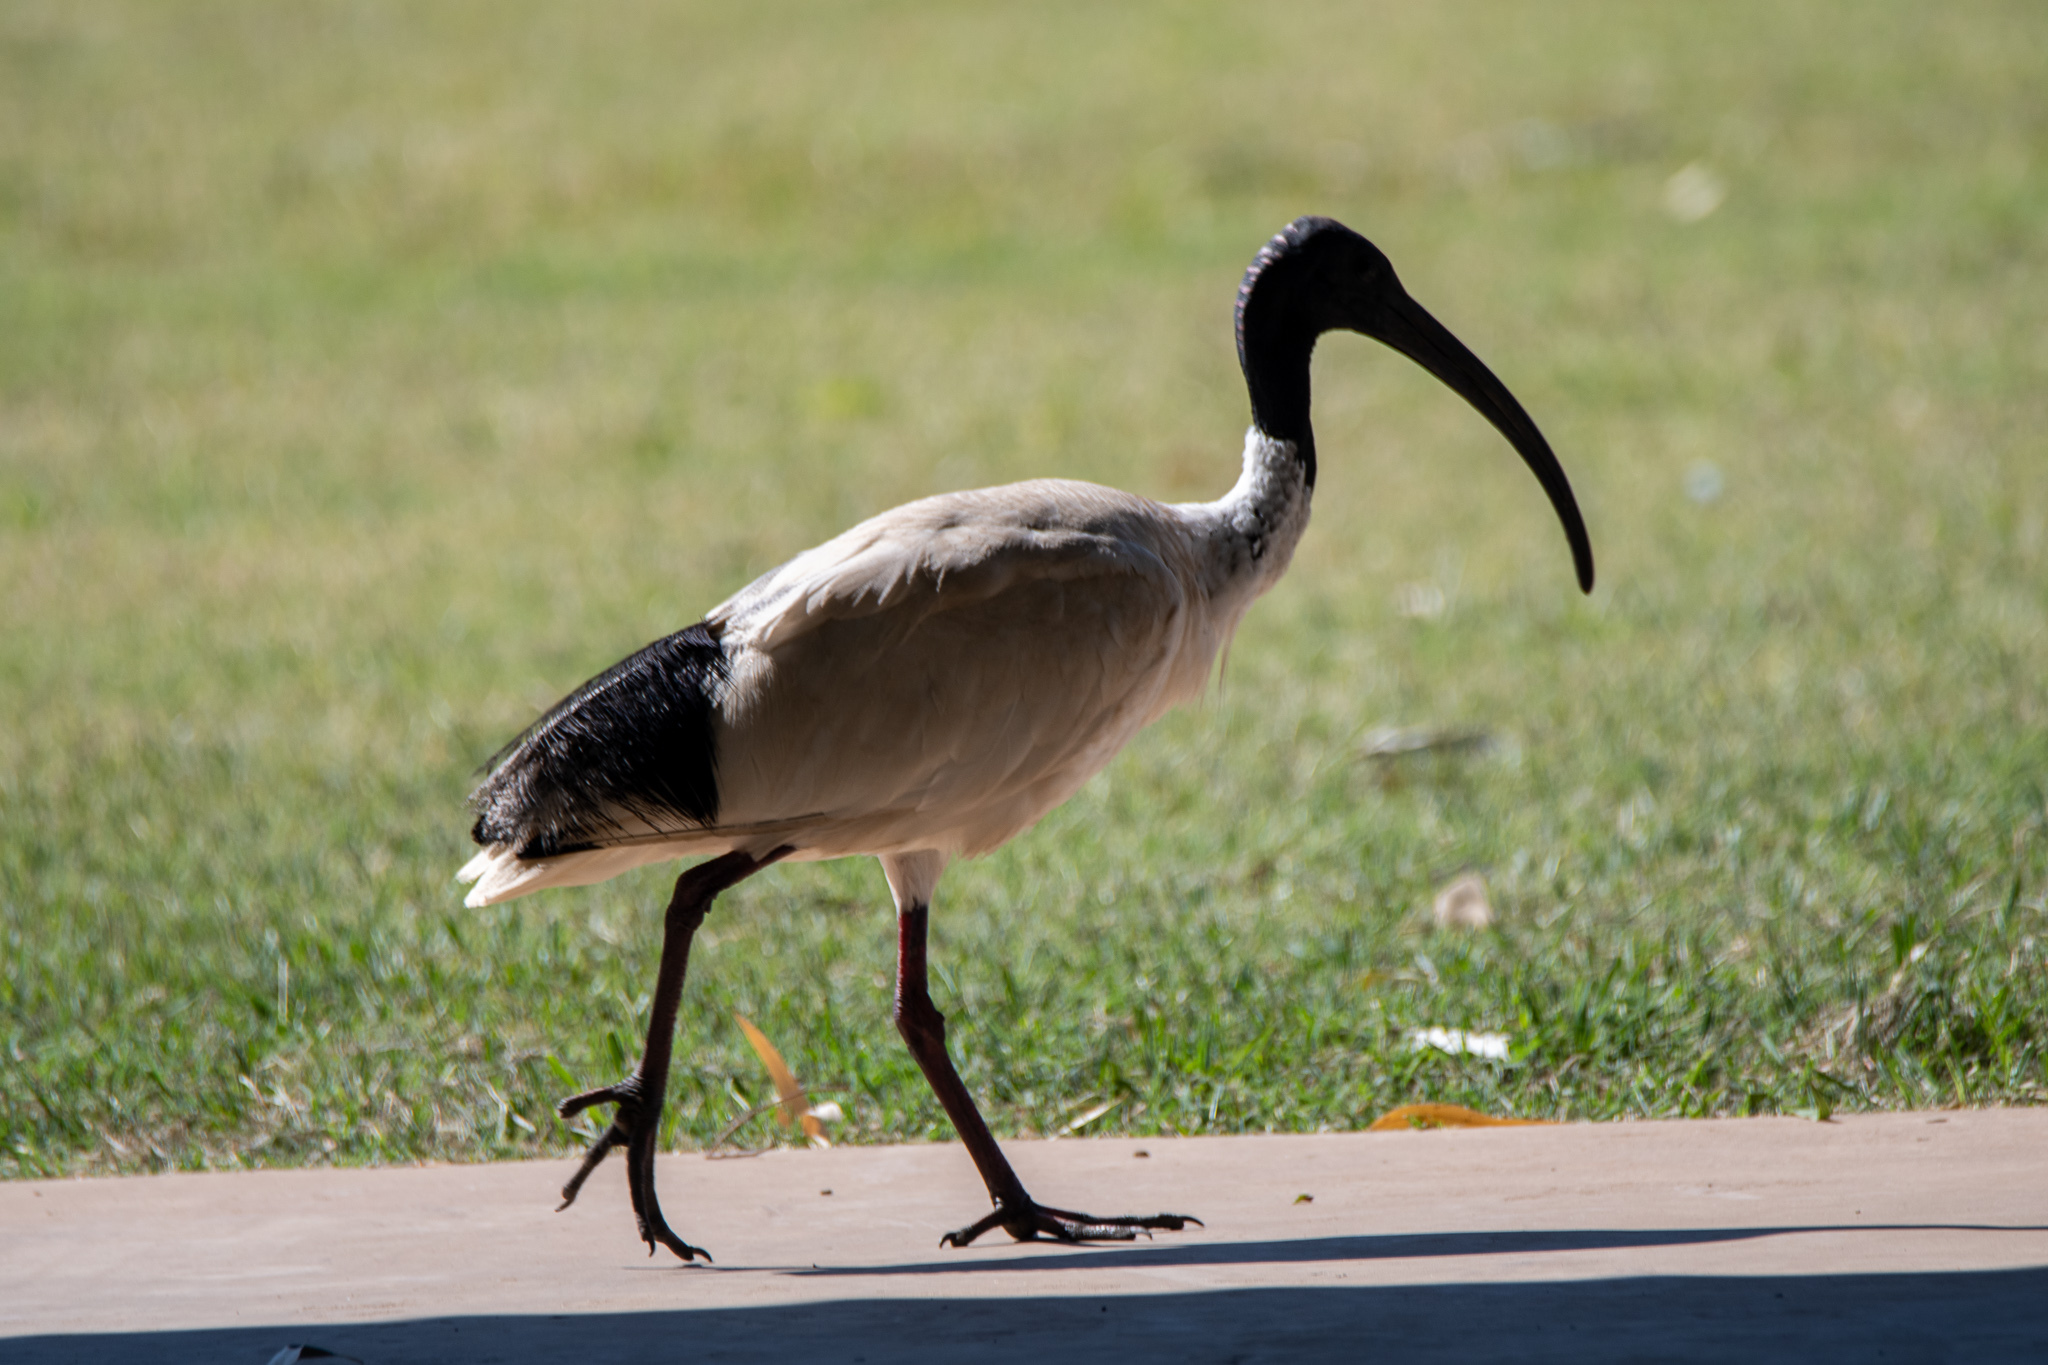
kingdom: Animalia
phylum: Chordata
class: Aves
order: Pelecaniformes
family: Threskiornithidae
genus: Threskiornis
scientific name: Threskiornis molucca
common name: Australian white ibis
